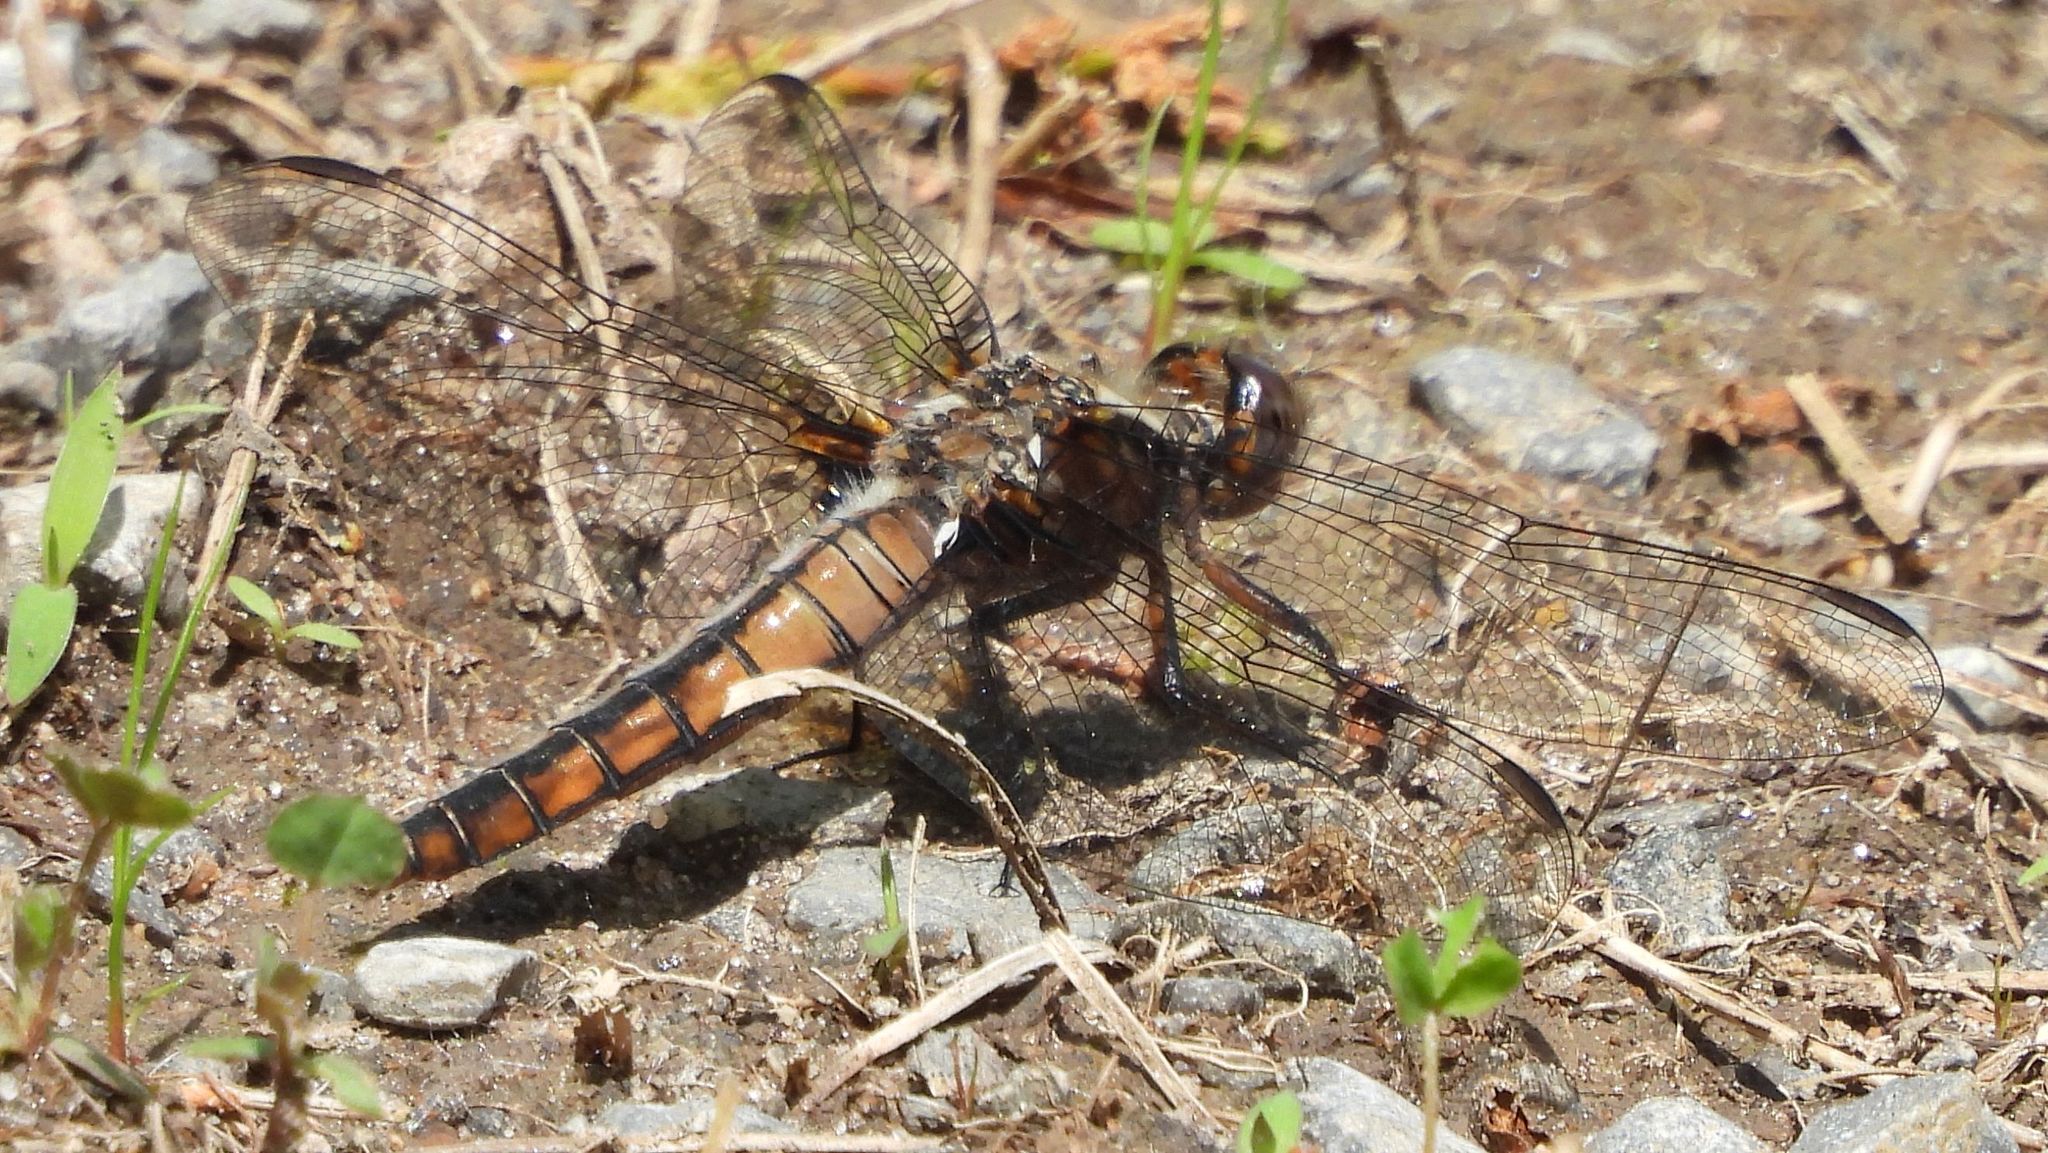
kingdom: Animalia
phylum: Arthropoda
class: Insecta
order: Odonata
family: Libellulidae
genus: Ladona
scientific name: Ladona julia
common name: Chalk-fronted corporal
